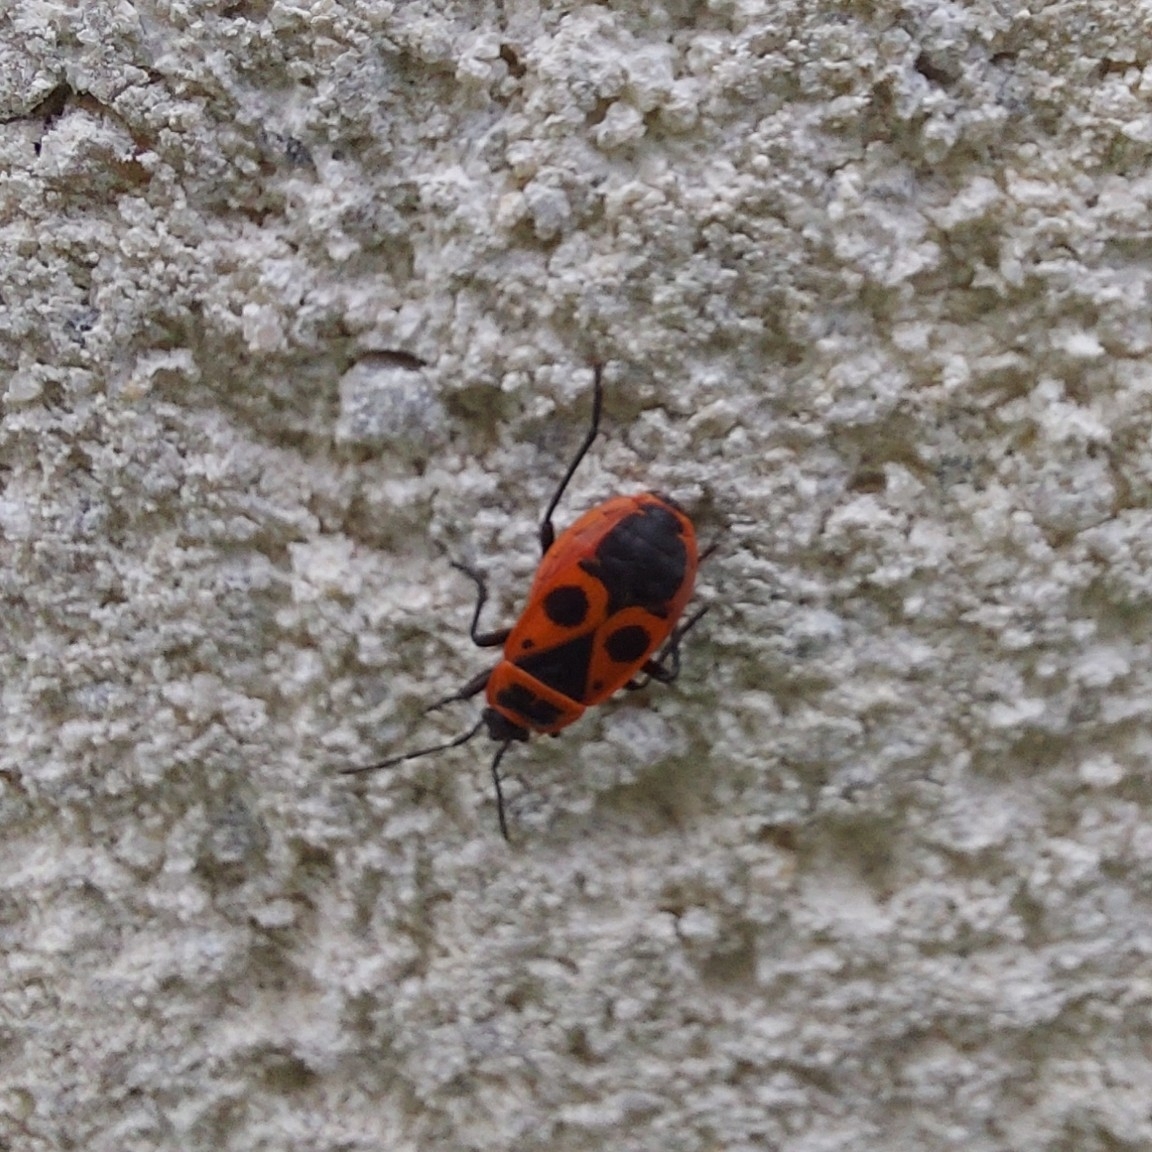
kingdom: Animalia
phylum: Arthropoda
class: Insecta
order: Hemiptera
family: Pyrrhocoridae
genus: Pyrrhocoris
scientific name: Pyrrhocoris apterus
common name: Firebug
